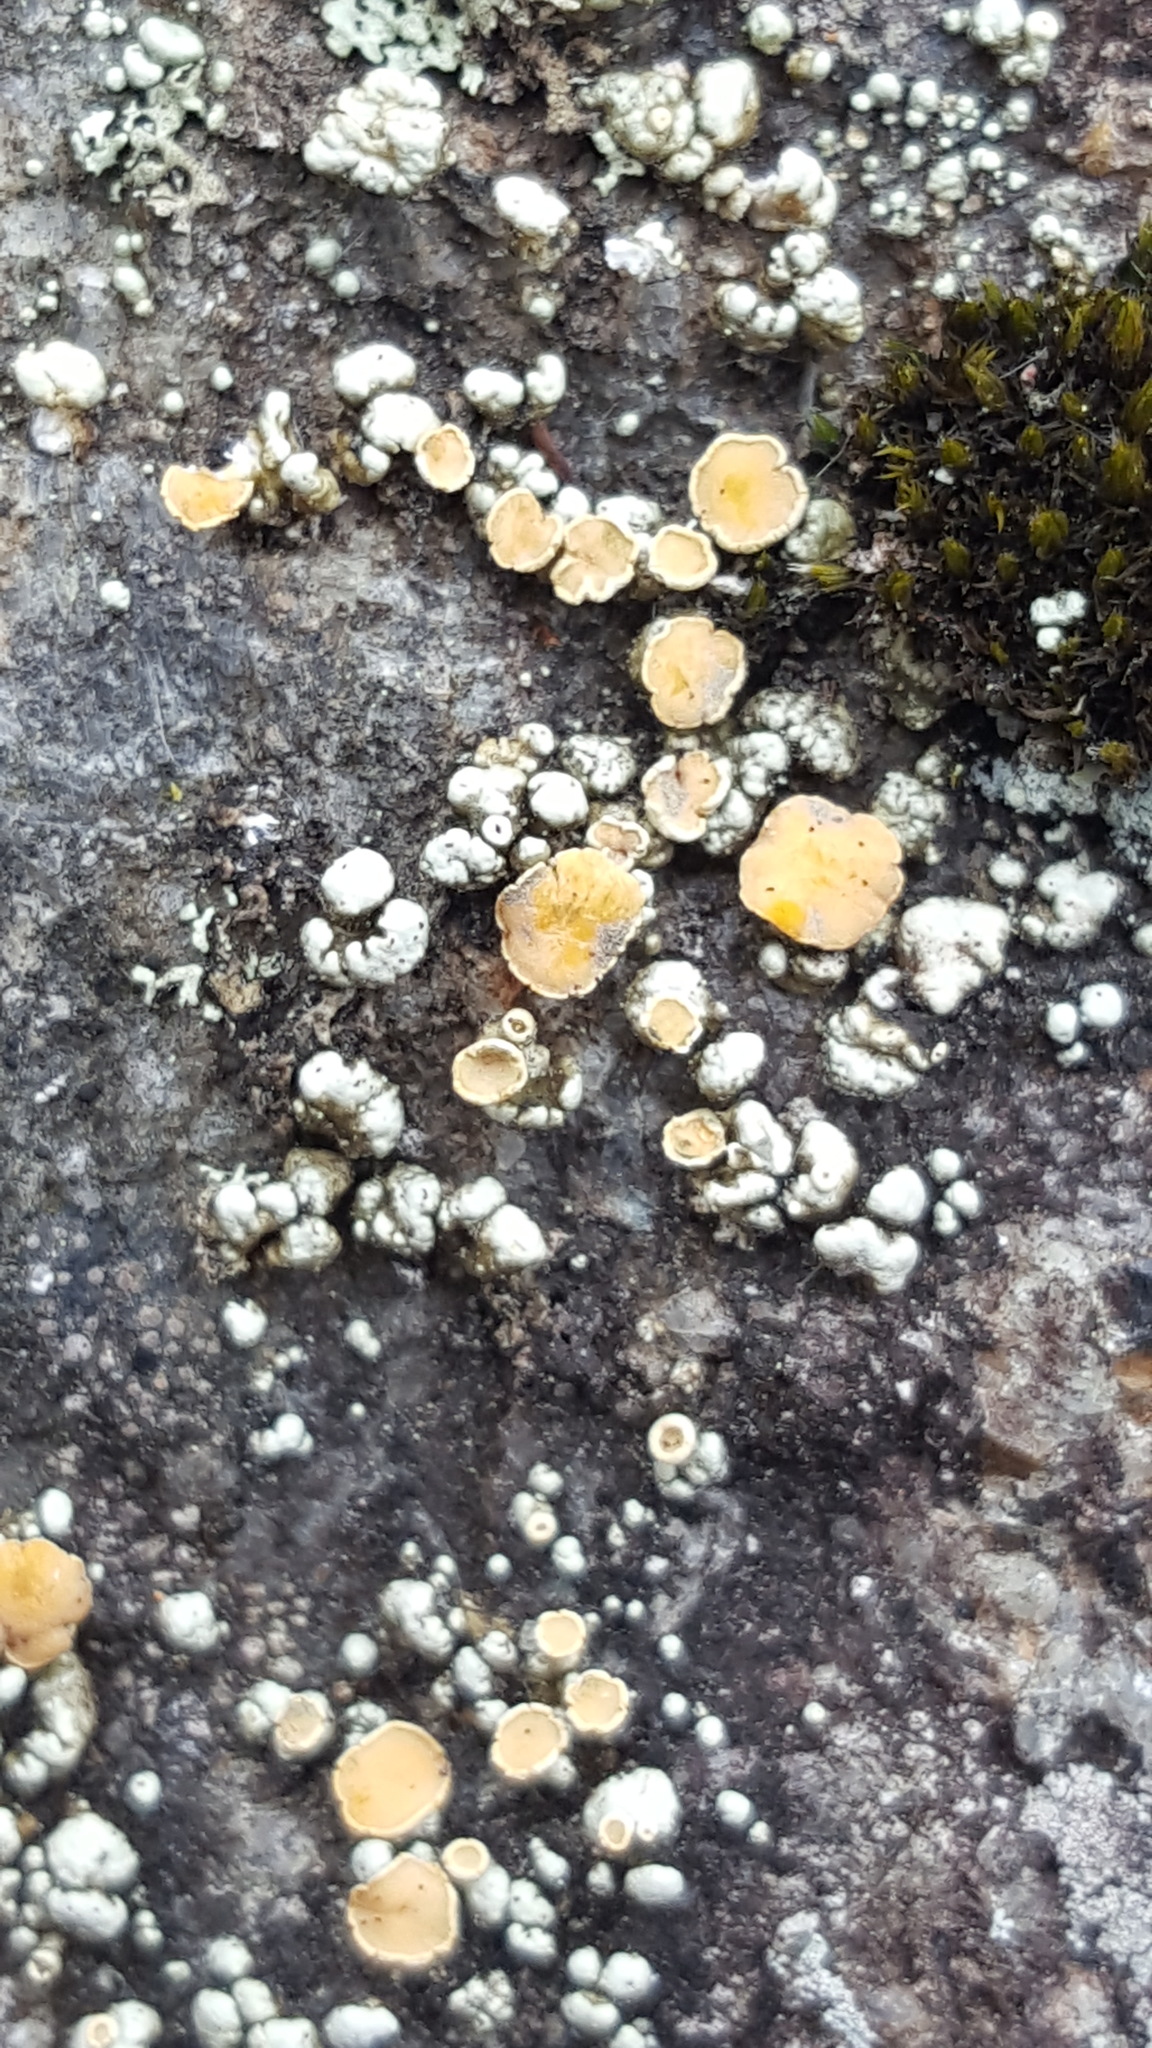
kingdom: Fungi
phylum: Ascomycota
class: Lecanoromycetes
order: Lecanorales
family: Lecanoraceae
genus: Sedelnikovaea
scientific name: Sedelnikovaea subdiscrepans
